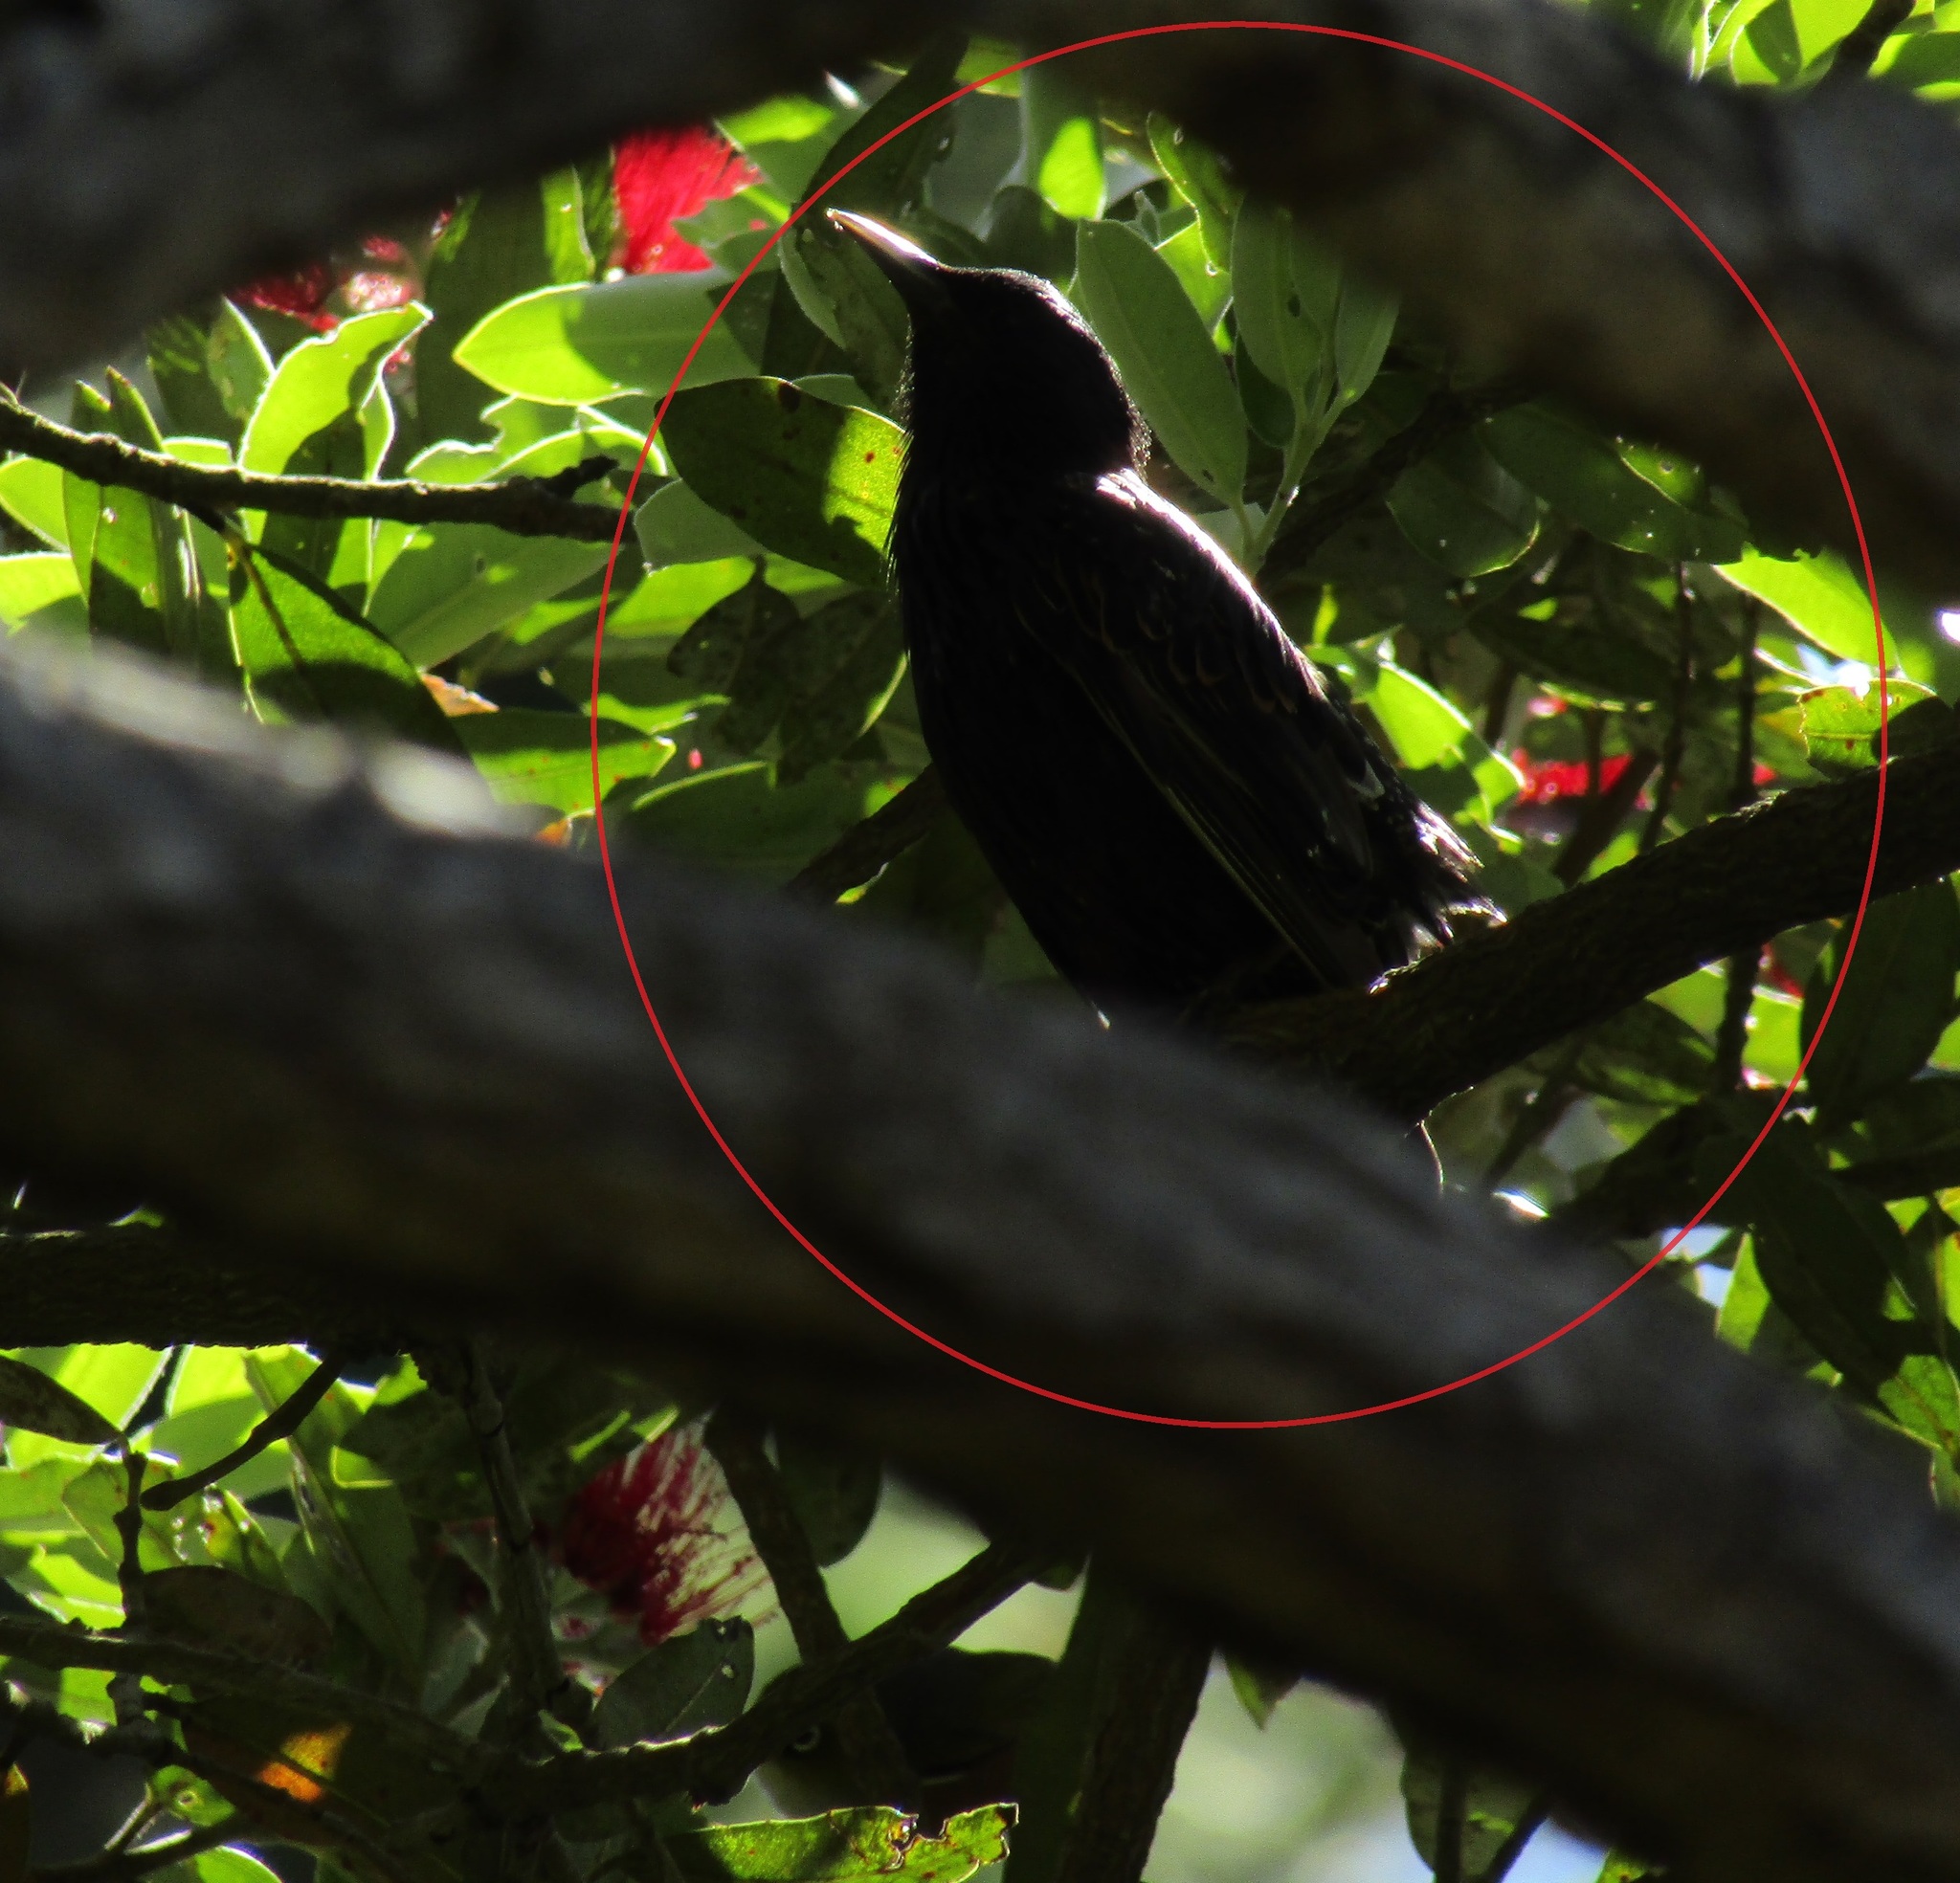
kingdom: Animalia
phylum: Chordata
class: Aves
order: Passeriformes
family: Sturnidae
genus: Sturnus
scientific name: Sturnus vulgaris
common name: Common starling
